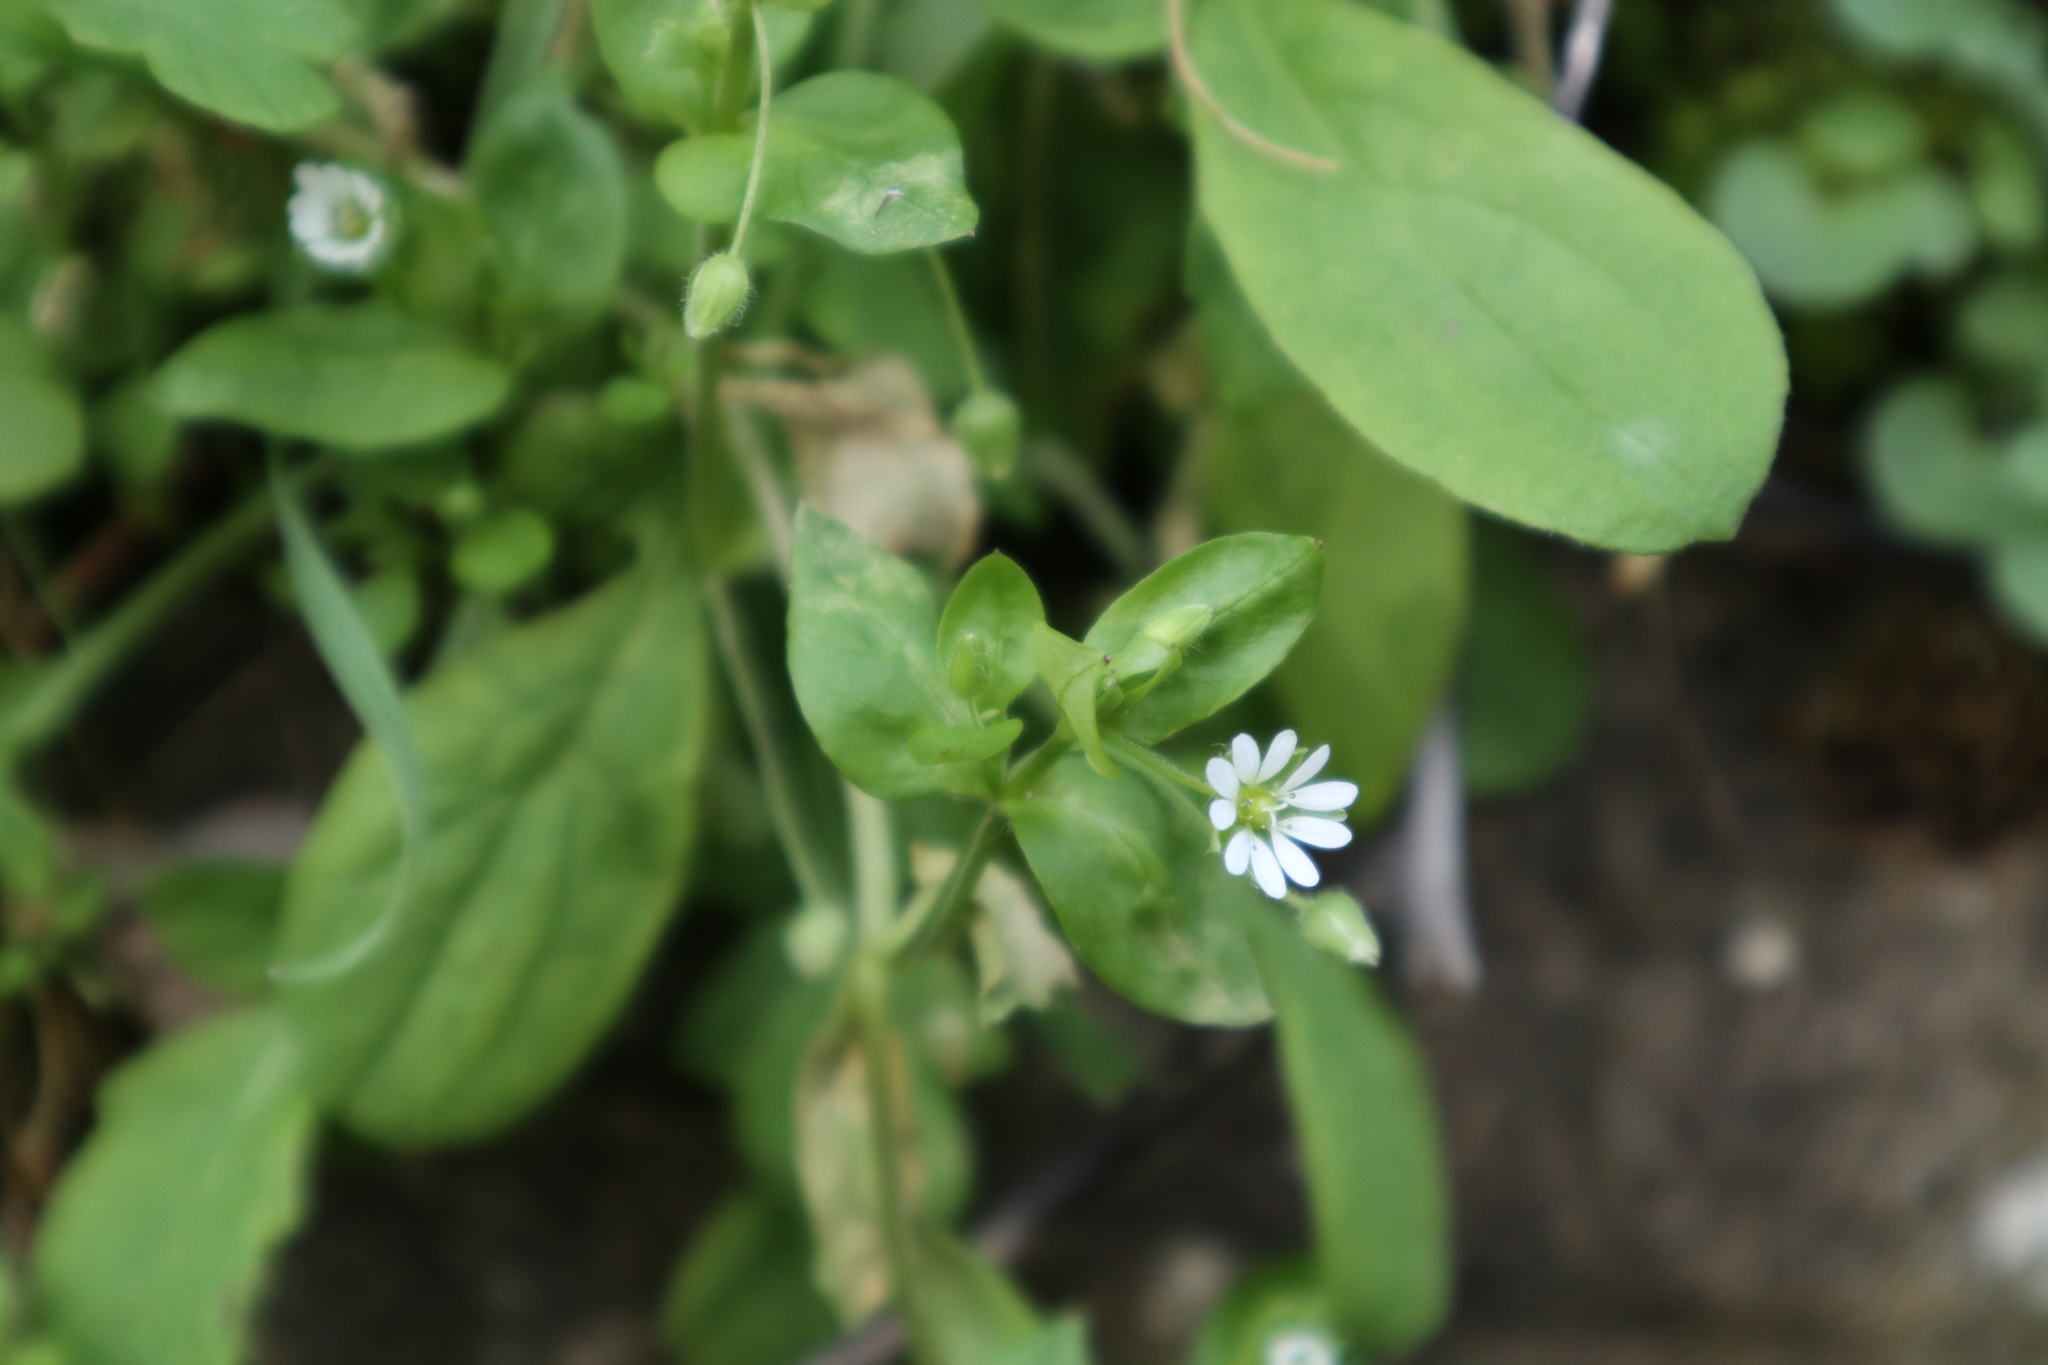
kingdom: Plantae
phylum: Tracheophyta
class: Magnoliopsida
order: Caryophyllales
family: Caryophyllaceae
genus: Stellaria
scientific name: Stellaria media
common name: Common chickweed
